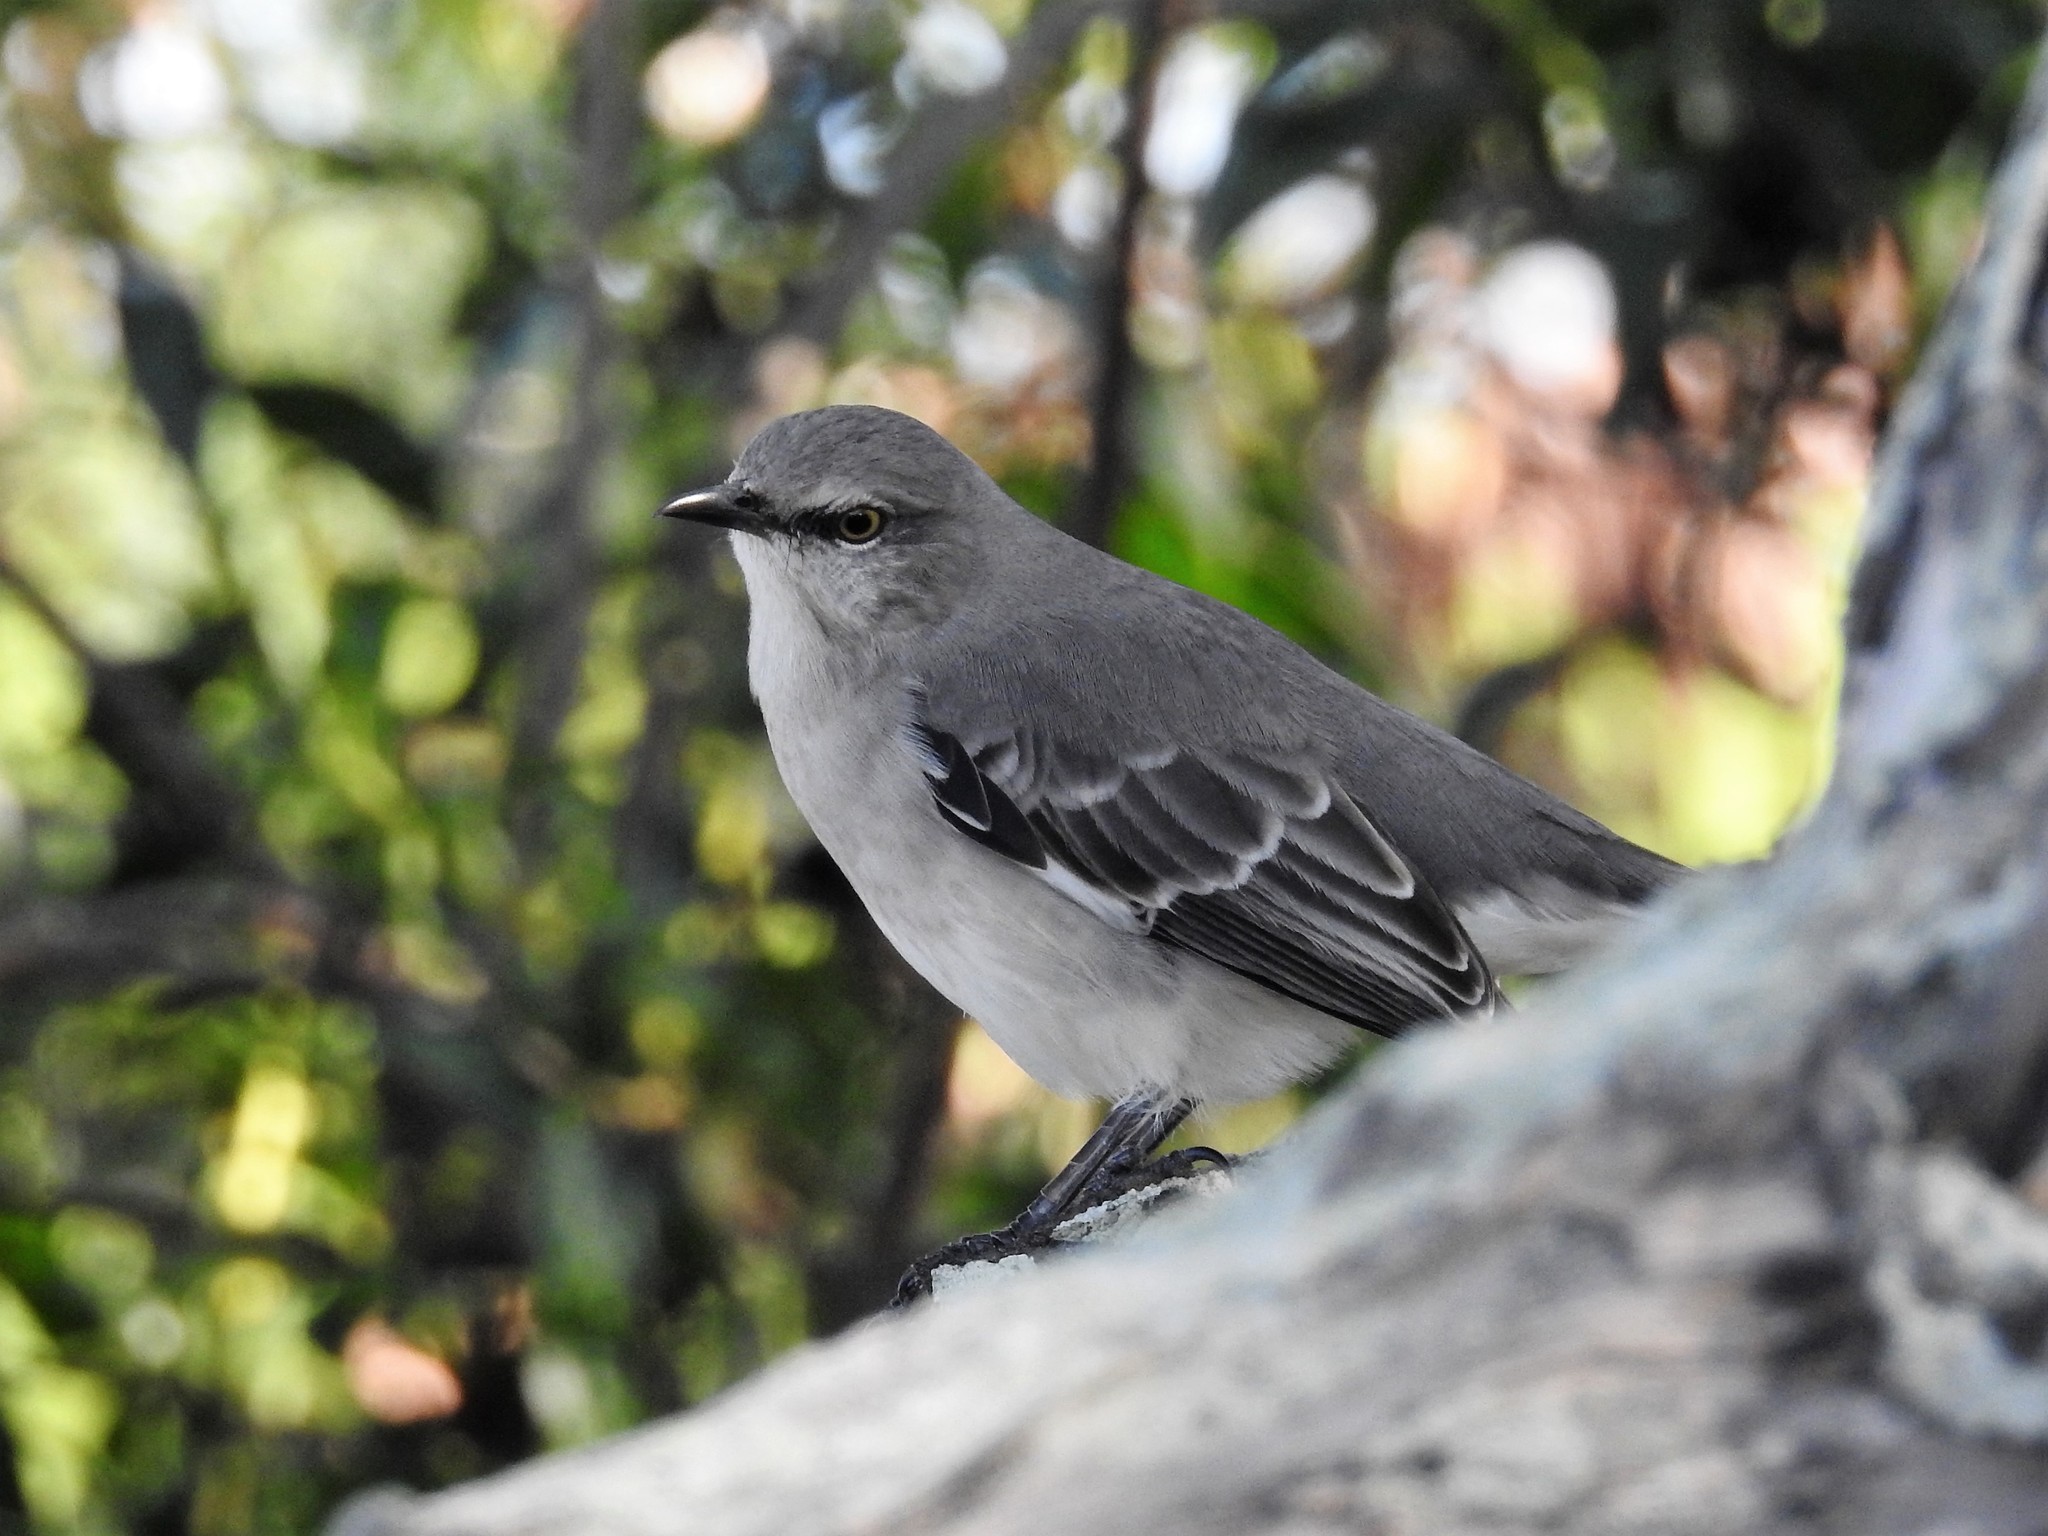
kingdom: Animalia
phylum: Chordata
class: Aves
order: Passeriformes
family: Mimidae
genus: Mimus
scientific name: Mimus polyglottos
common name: Northern mockingbird
